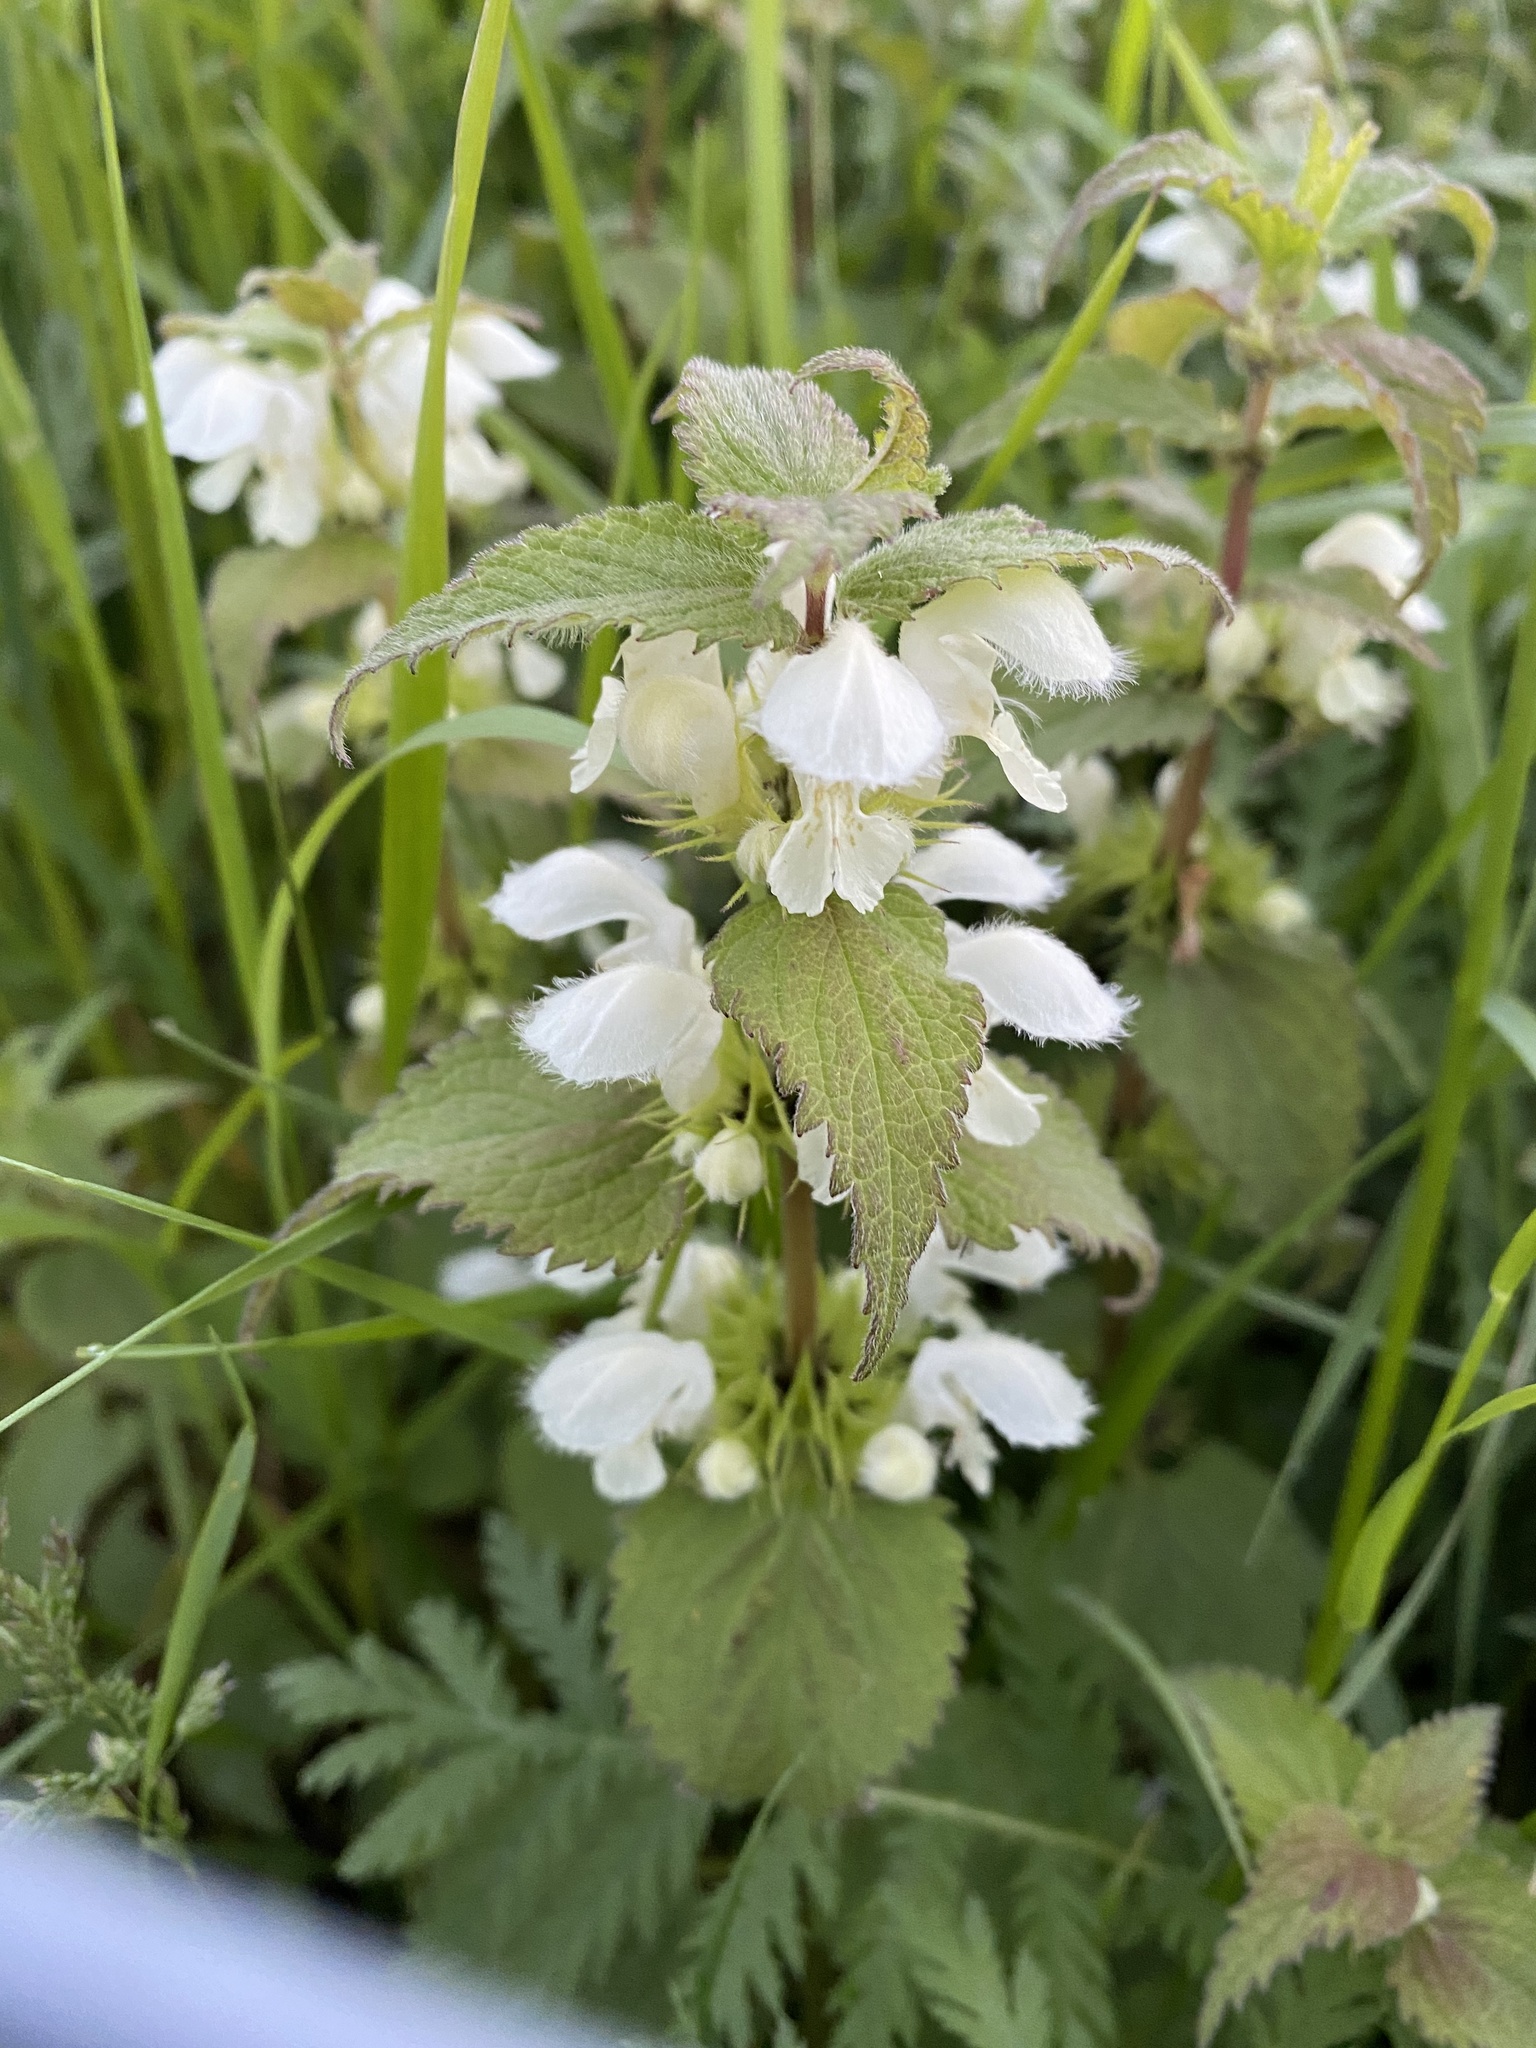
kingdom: Plantae
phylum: Tracheophyta
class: Magnoliopsida
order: Lamiales
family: Lamiaceae
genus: Lamium
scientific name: Lamium album
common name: White dead-nettle
